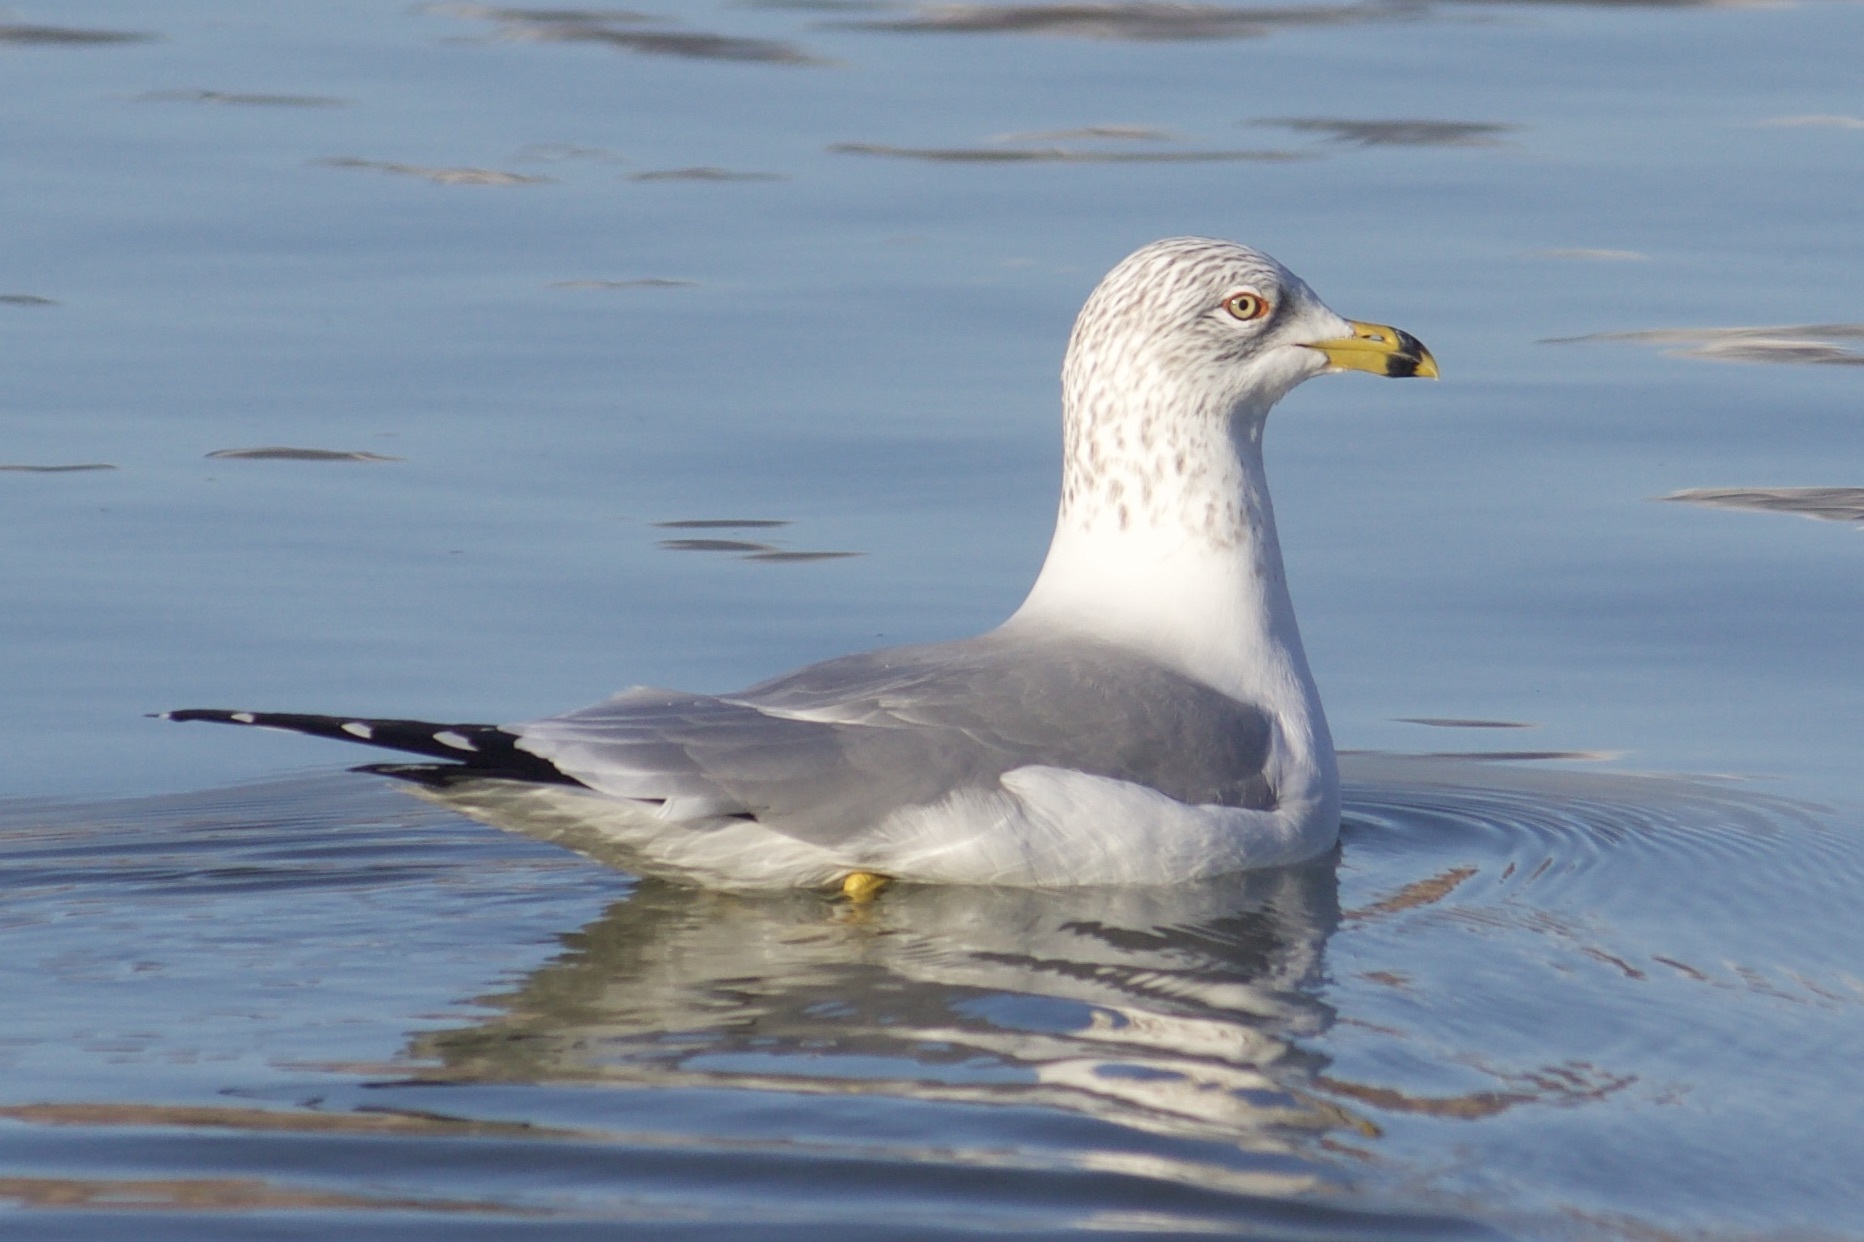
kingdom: Animalia
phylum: Chordata
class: Aves
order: Charadriiformes
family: Laridae
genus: Larus
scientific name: Larus delawarensis
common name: Ring-billed gull
